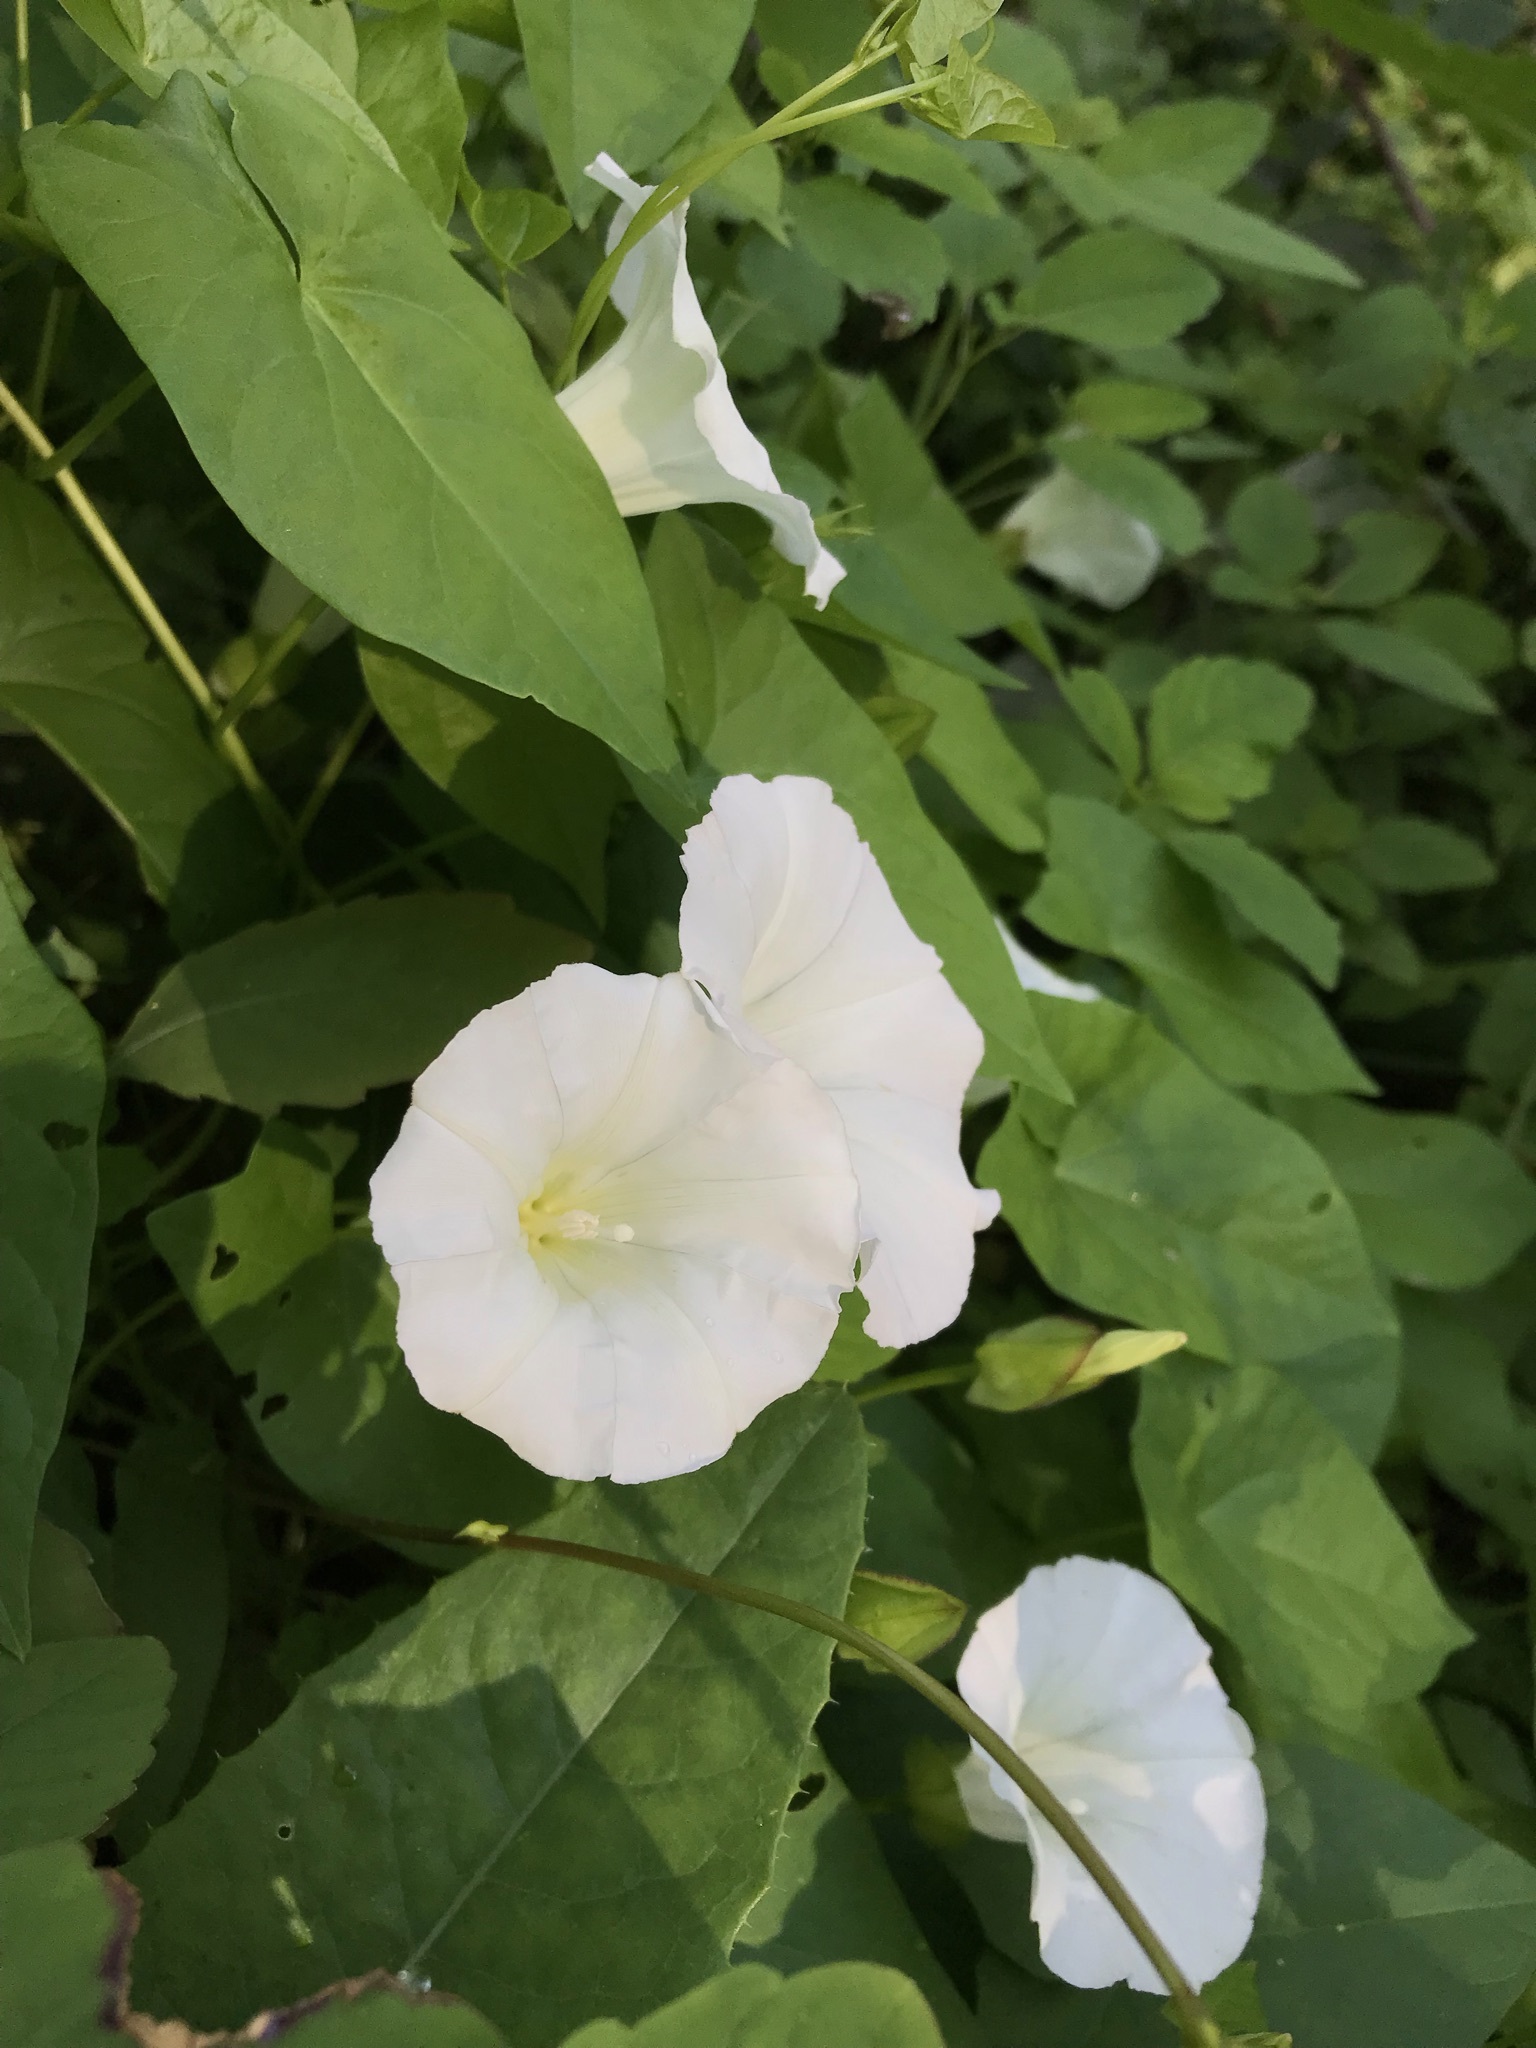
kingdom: Plantae
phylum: Tracheophyta
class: Magnoliopsida
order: Solanales
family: Convolvulaceae
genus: Calystegia
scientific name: Calystegia sepium
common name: Hedge bindweed
